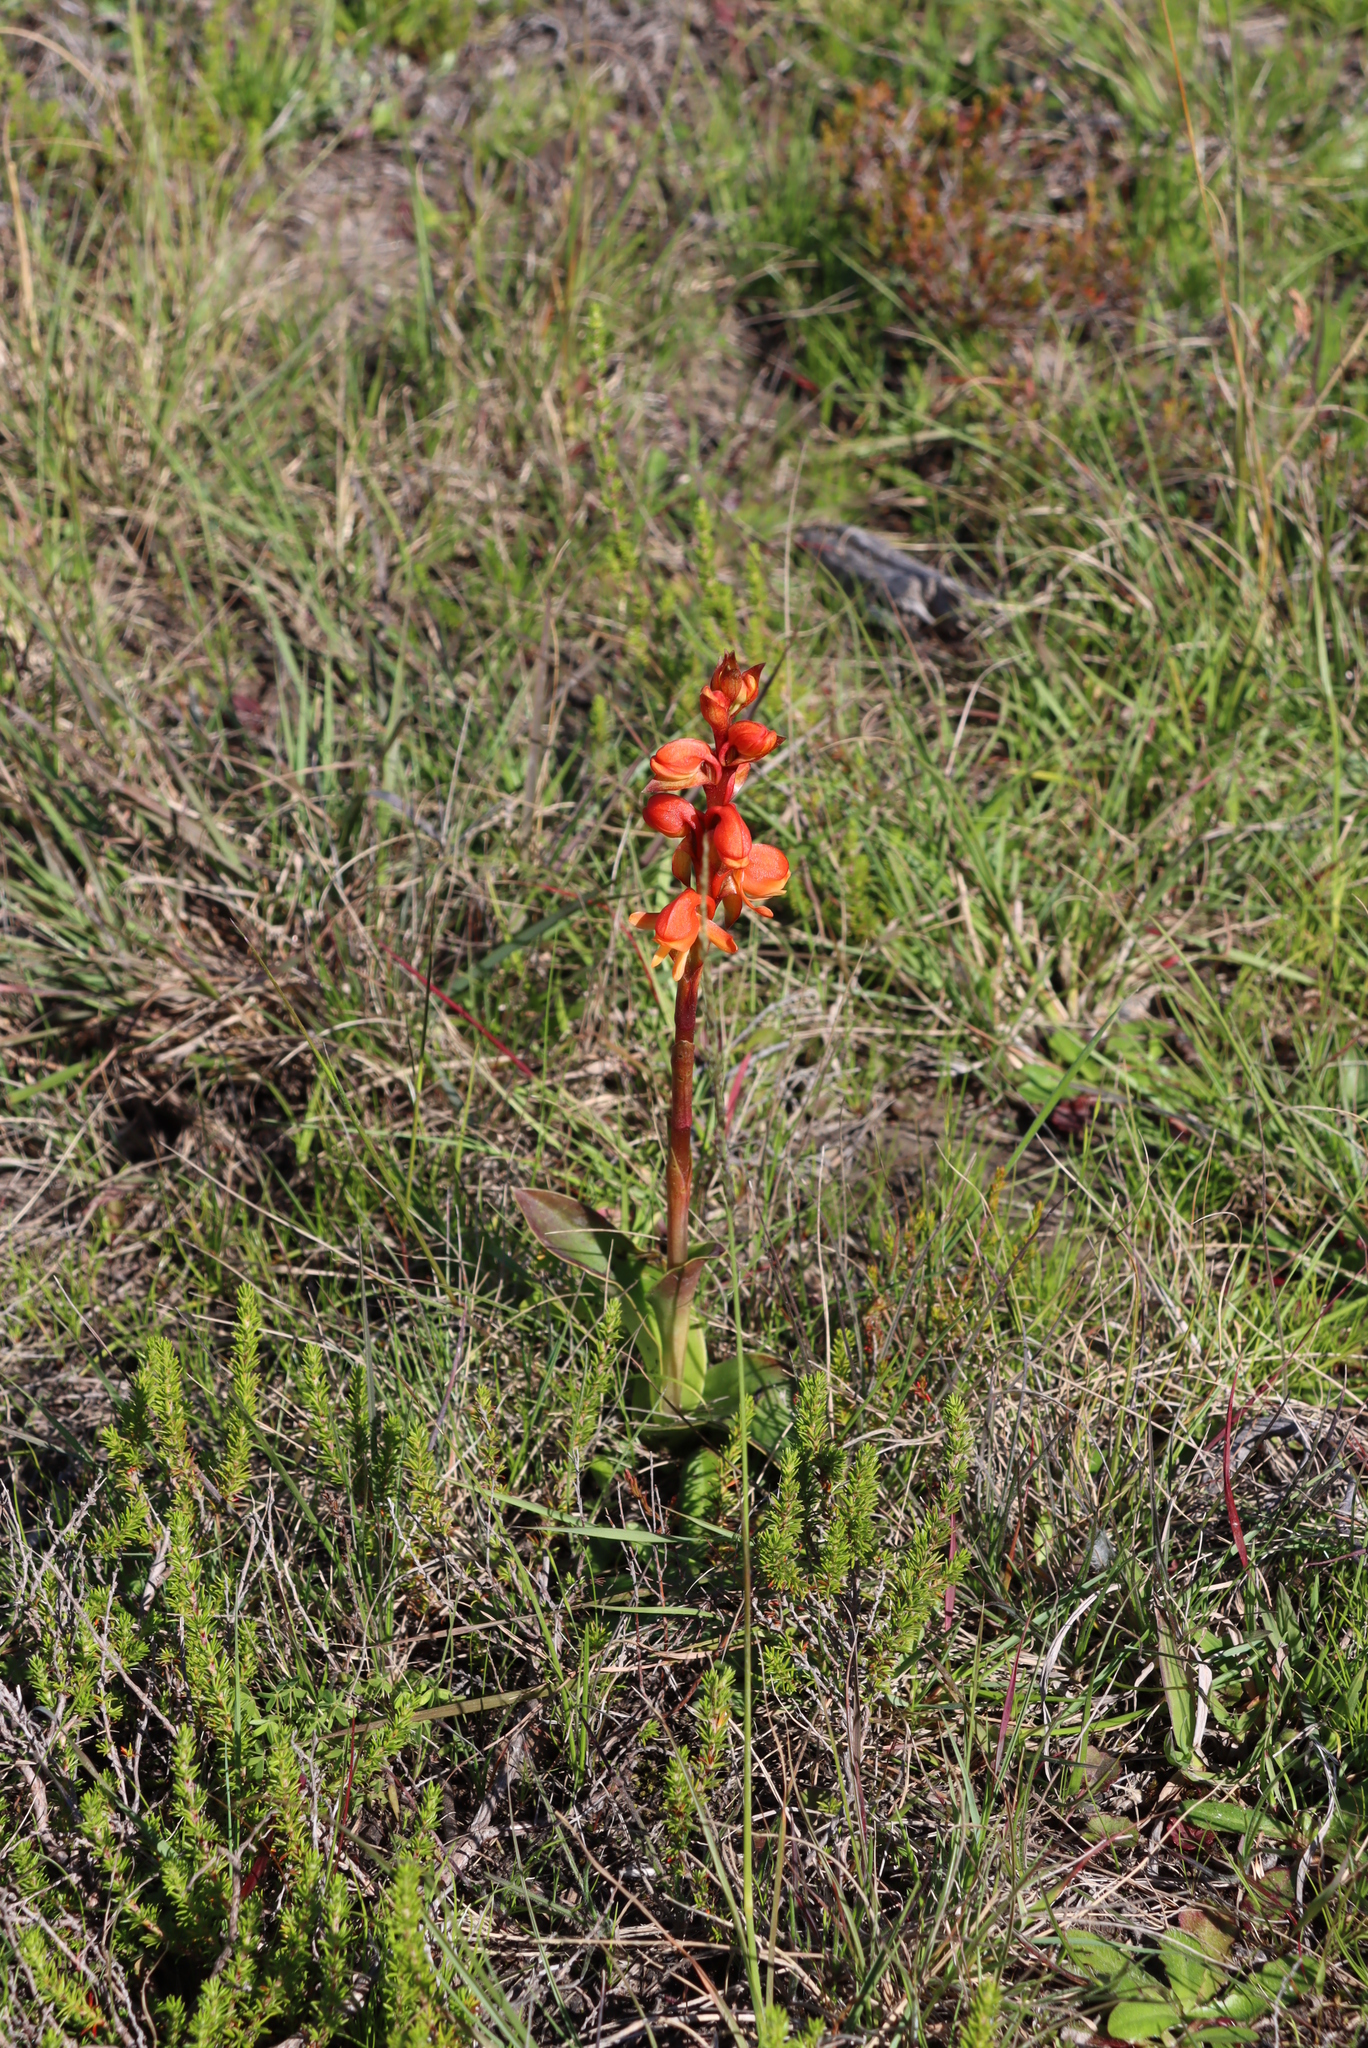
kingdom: Plantae
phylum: Tracheophyta
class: Liliopsida
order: Asparagales
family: Orchidaceae
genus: Satyrium
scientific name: Satyrium coriifolium
